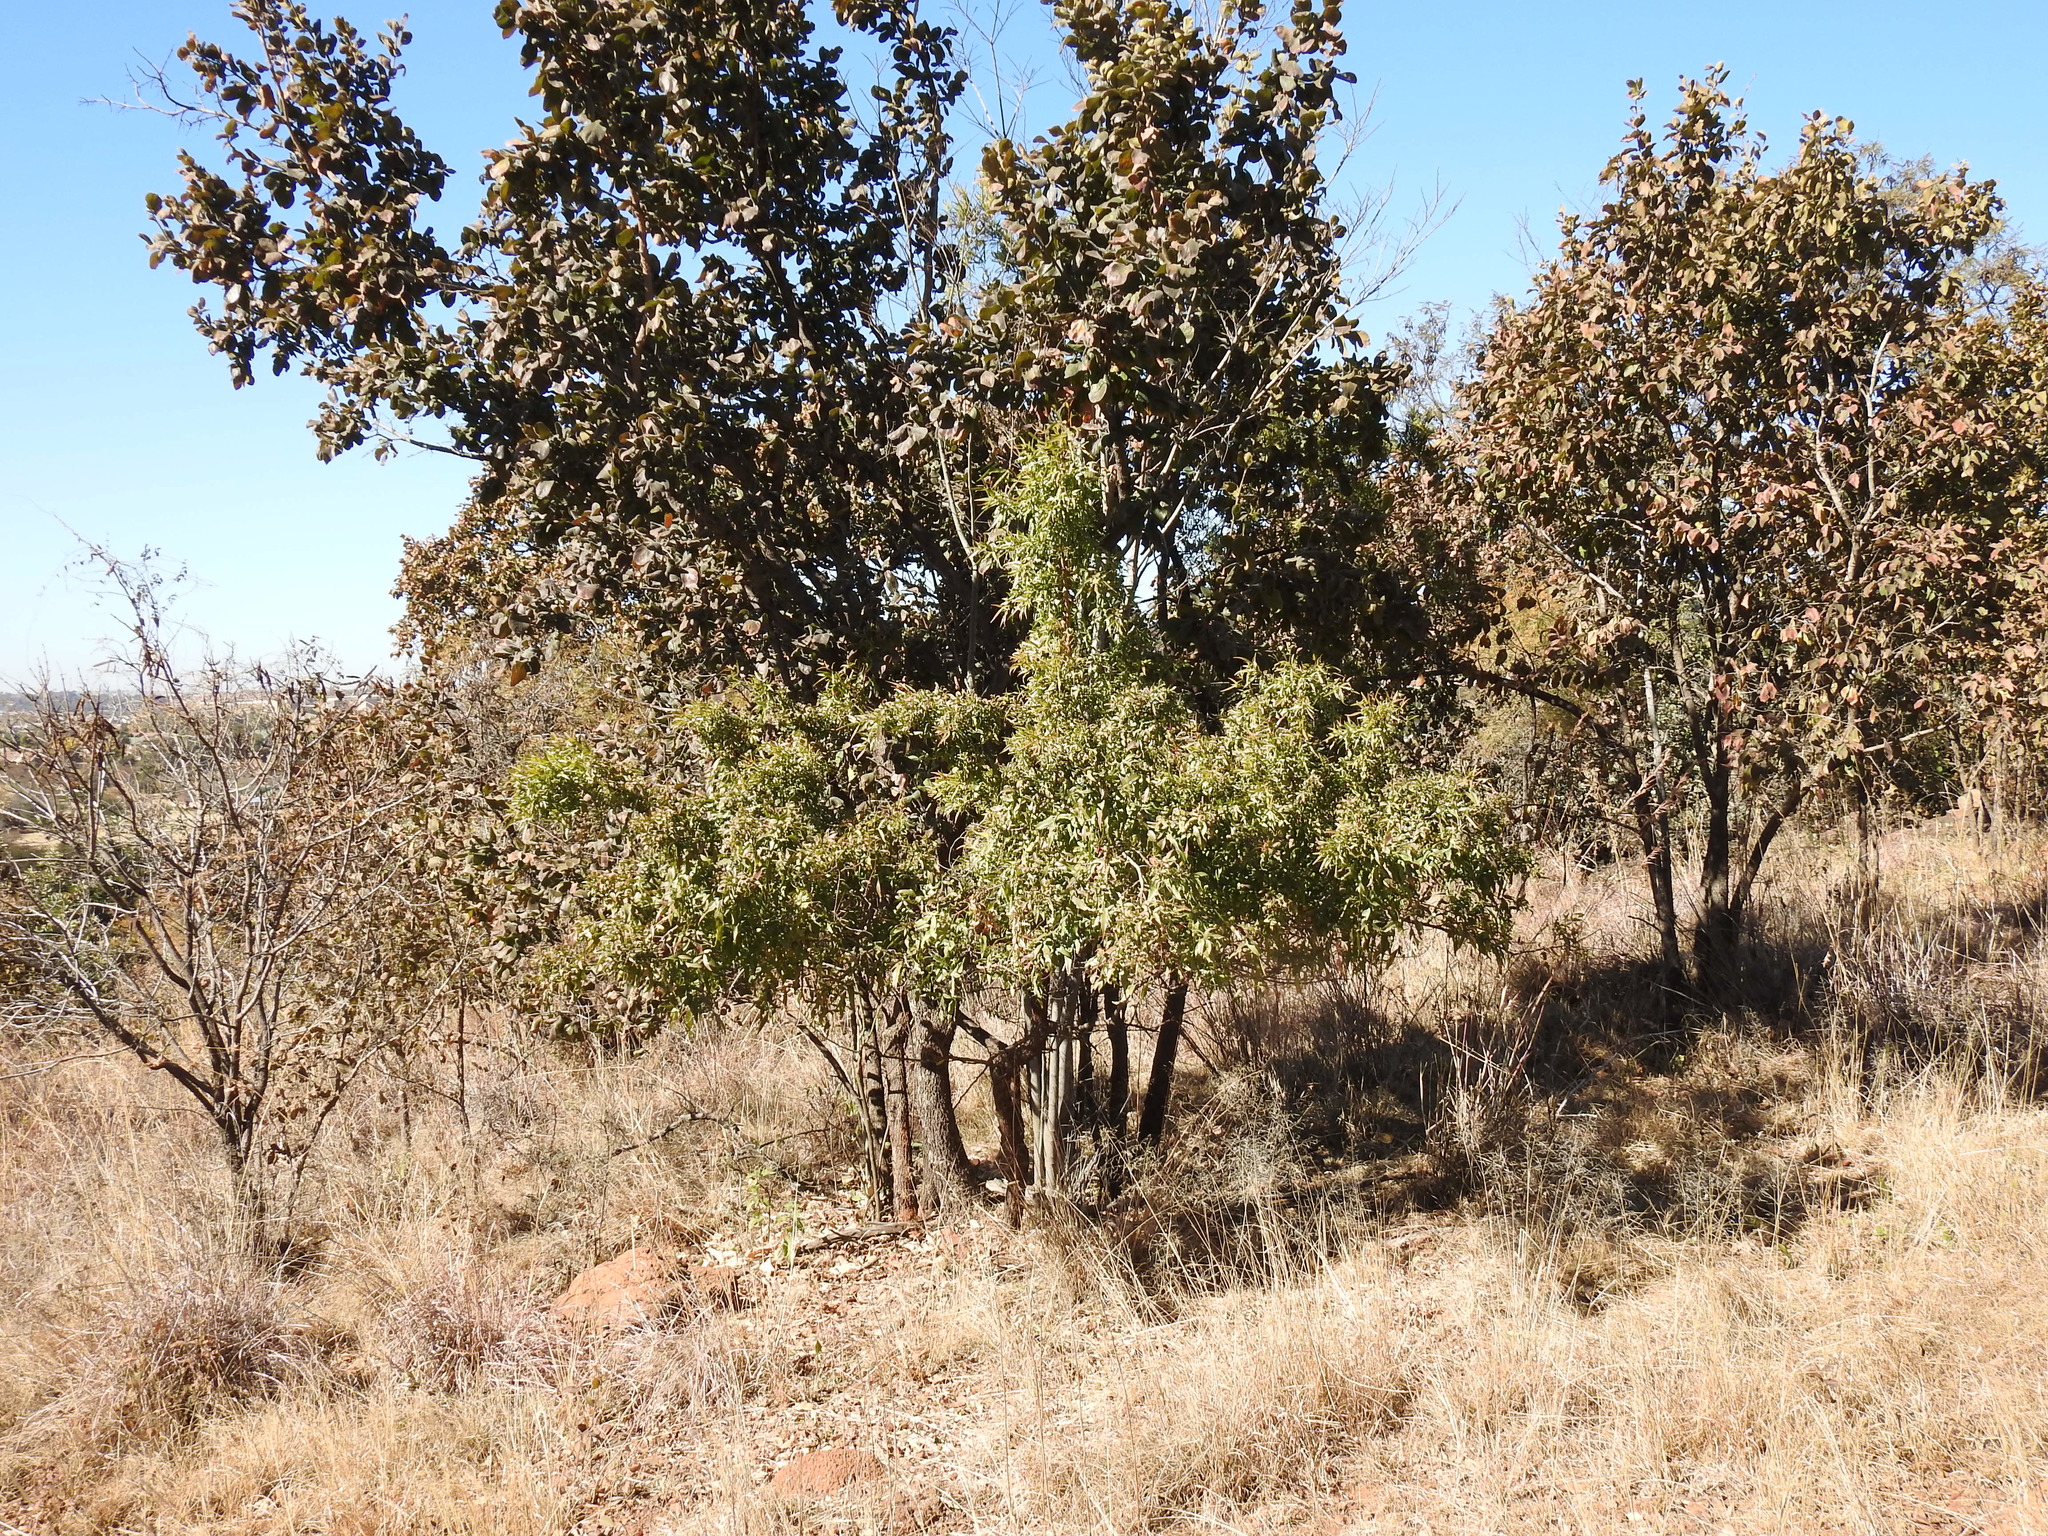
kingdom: Plantae
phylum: Tracheophyta
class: Magnoliopsida
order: Sapindales
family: Anacardiaceae
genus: Searsia
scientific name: Searsia leptodictya
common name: Mountain karee
